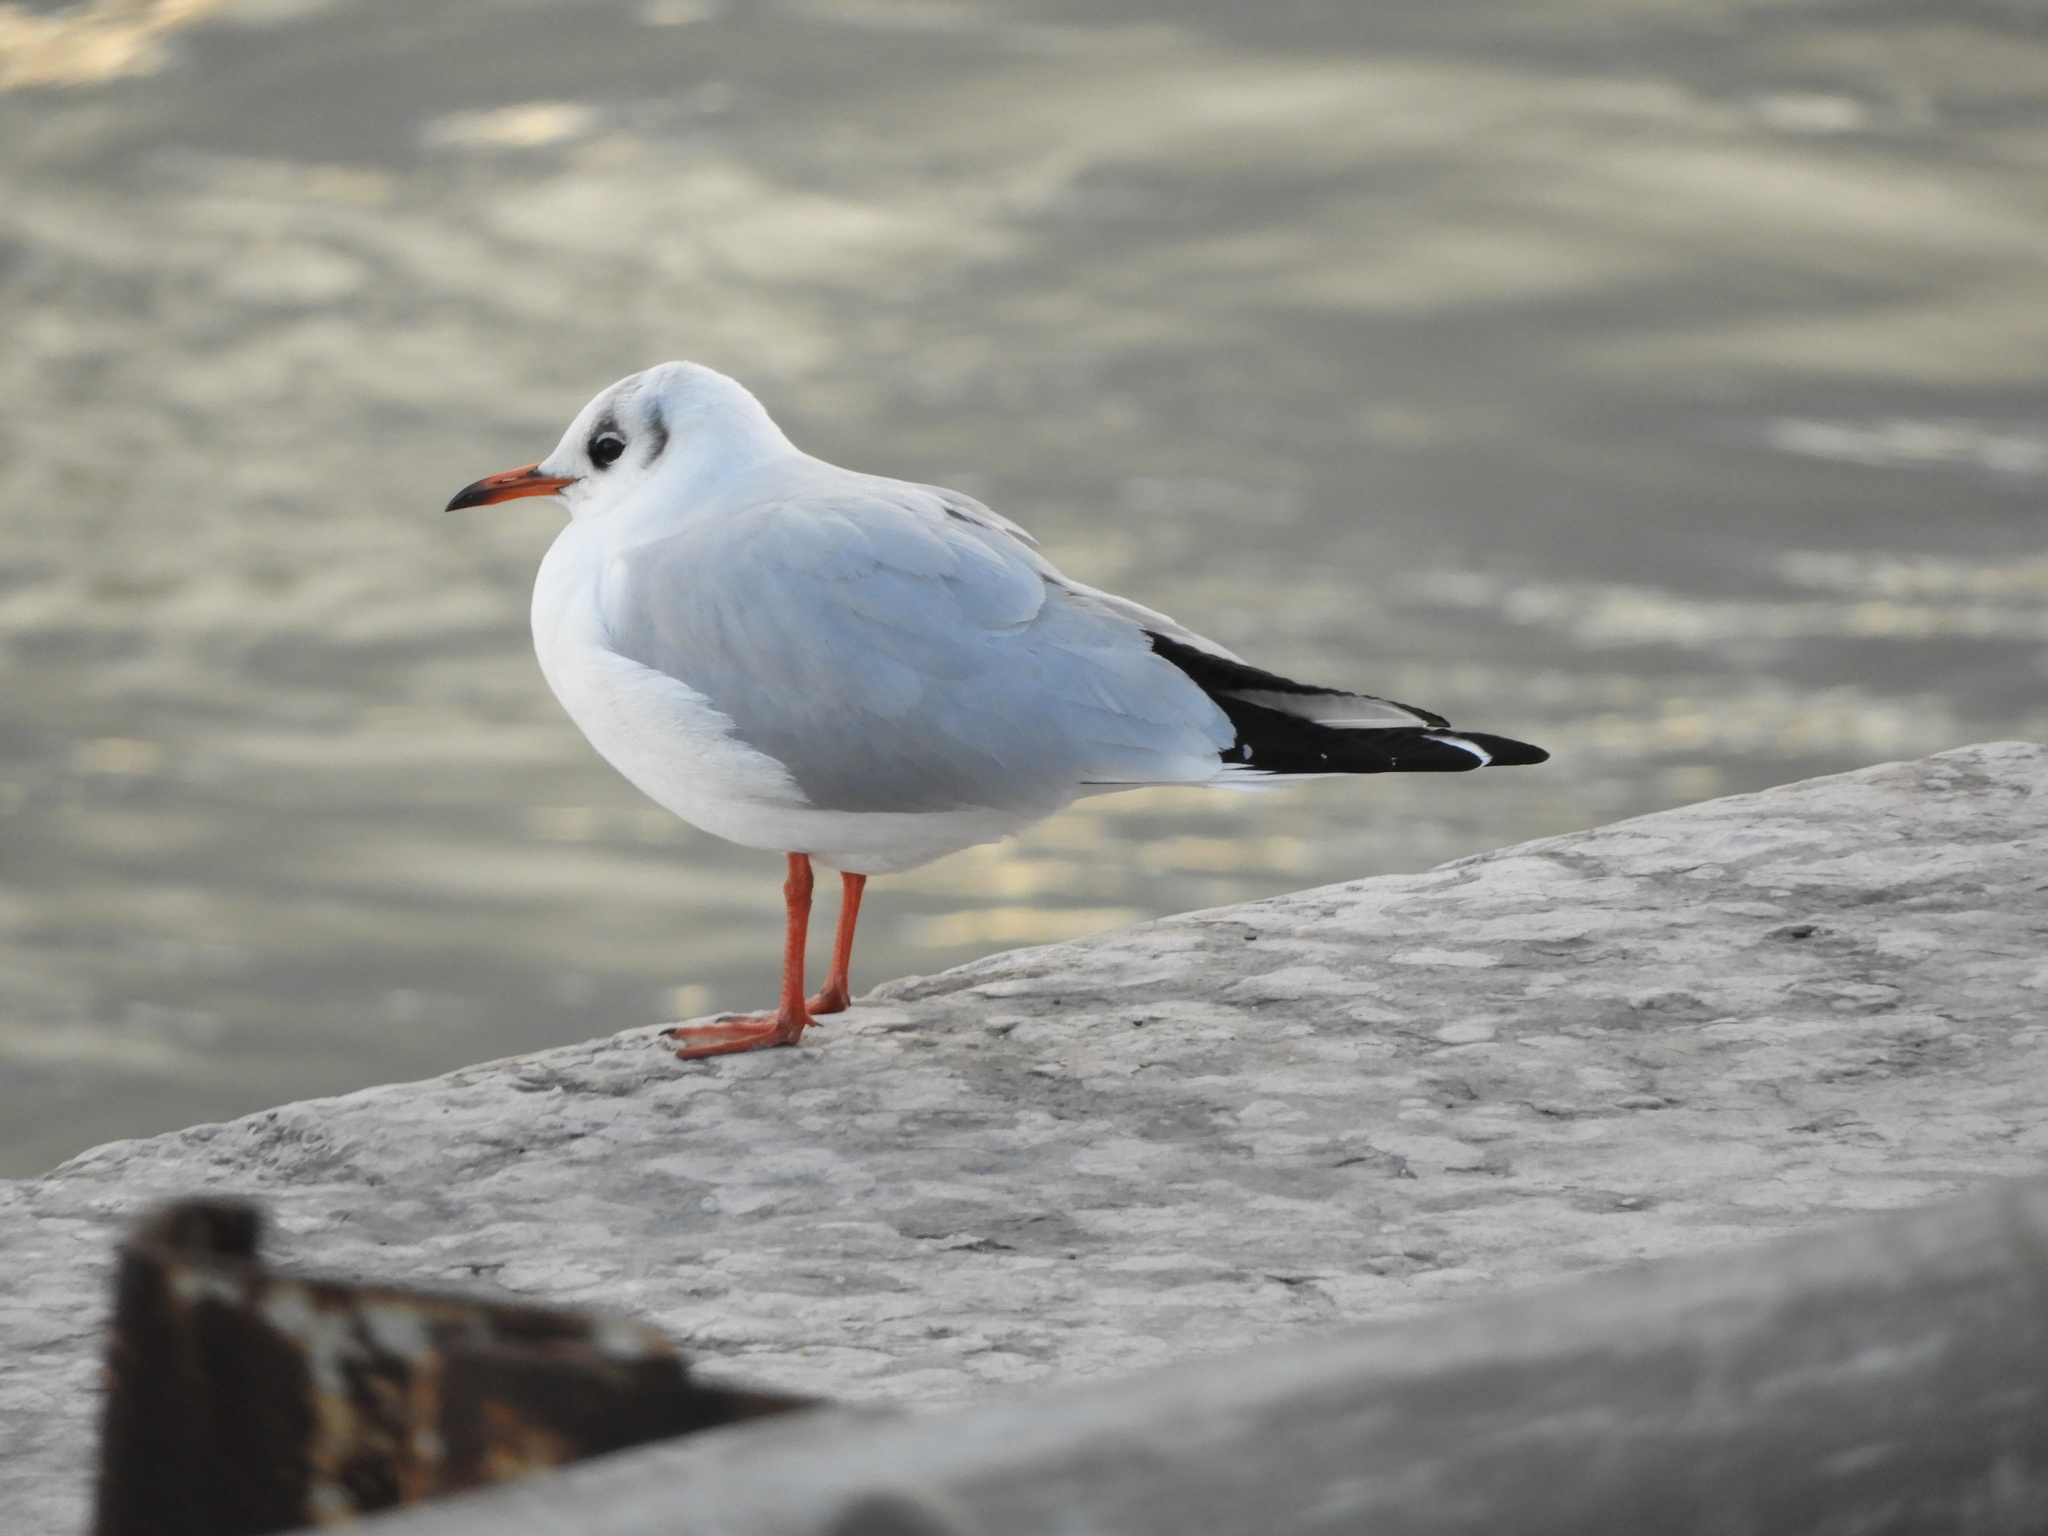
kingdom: Animalia
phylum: Chordata
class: Aves
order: Charadriiformes
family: Laridae
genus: Chroicocephalus
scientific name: Chroicocephalus ridibundus
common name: Black-headed gull
